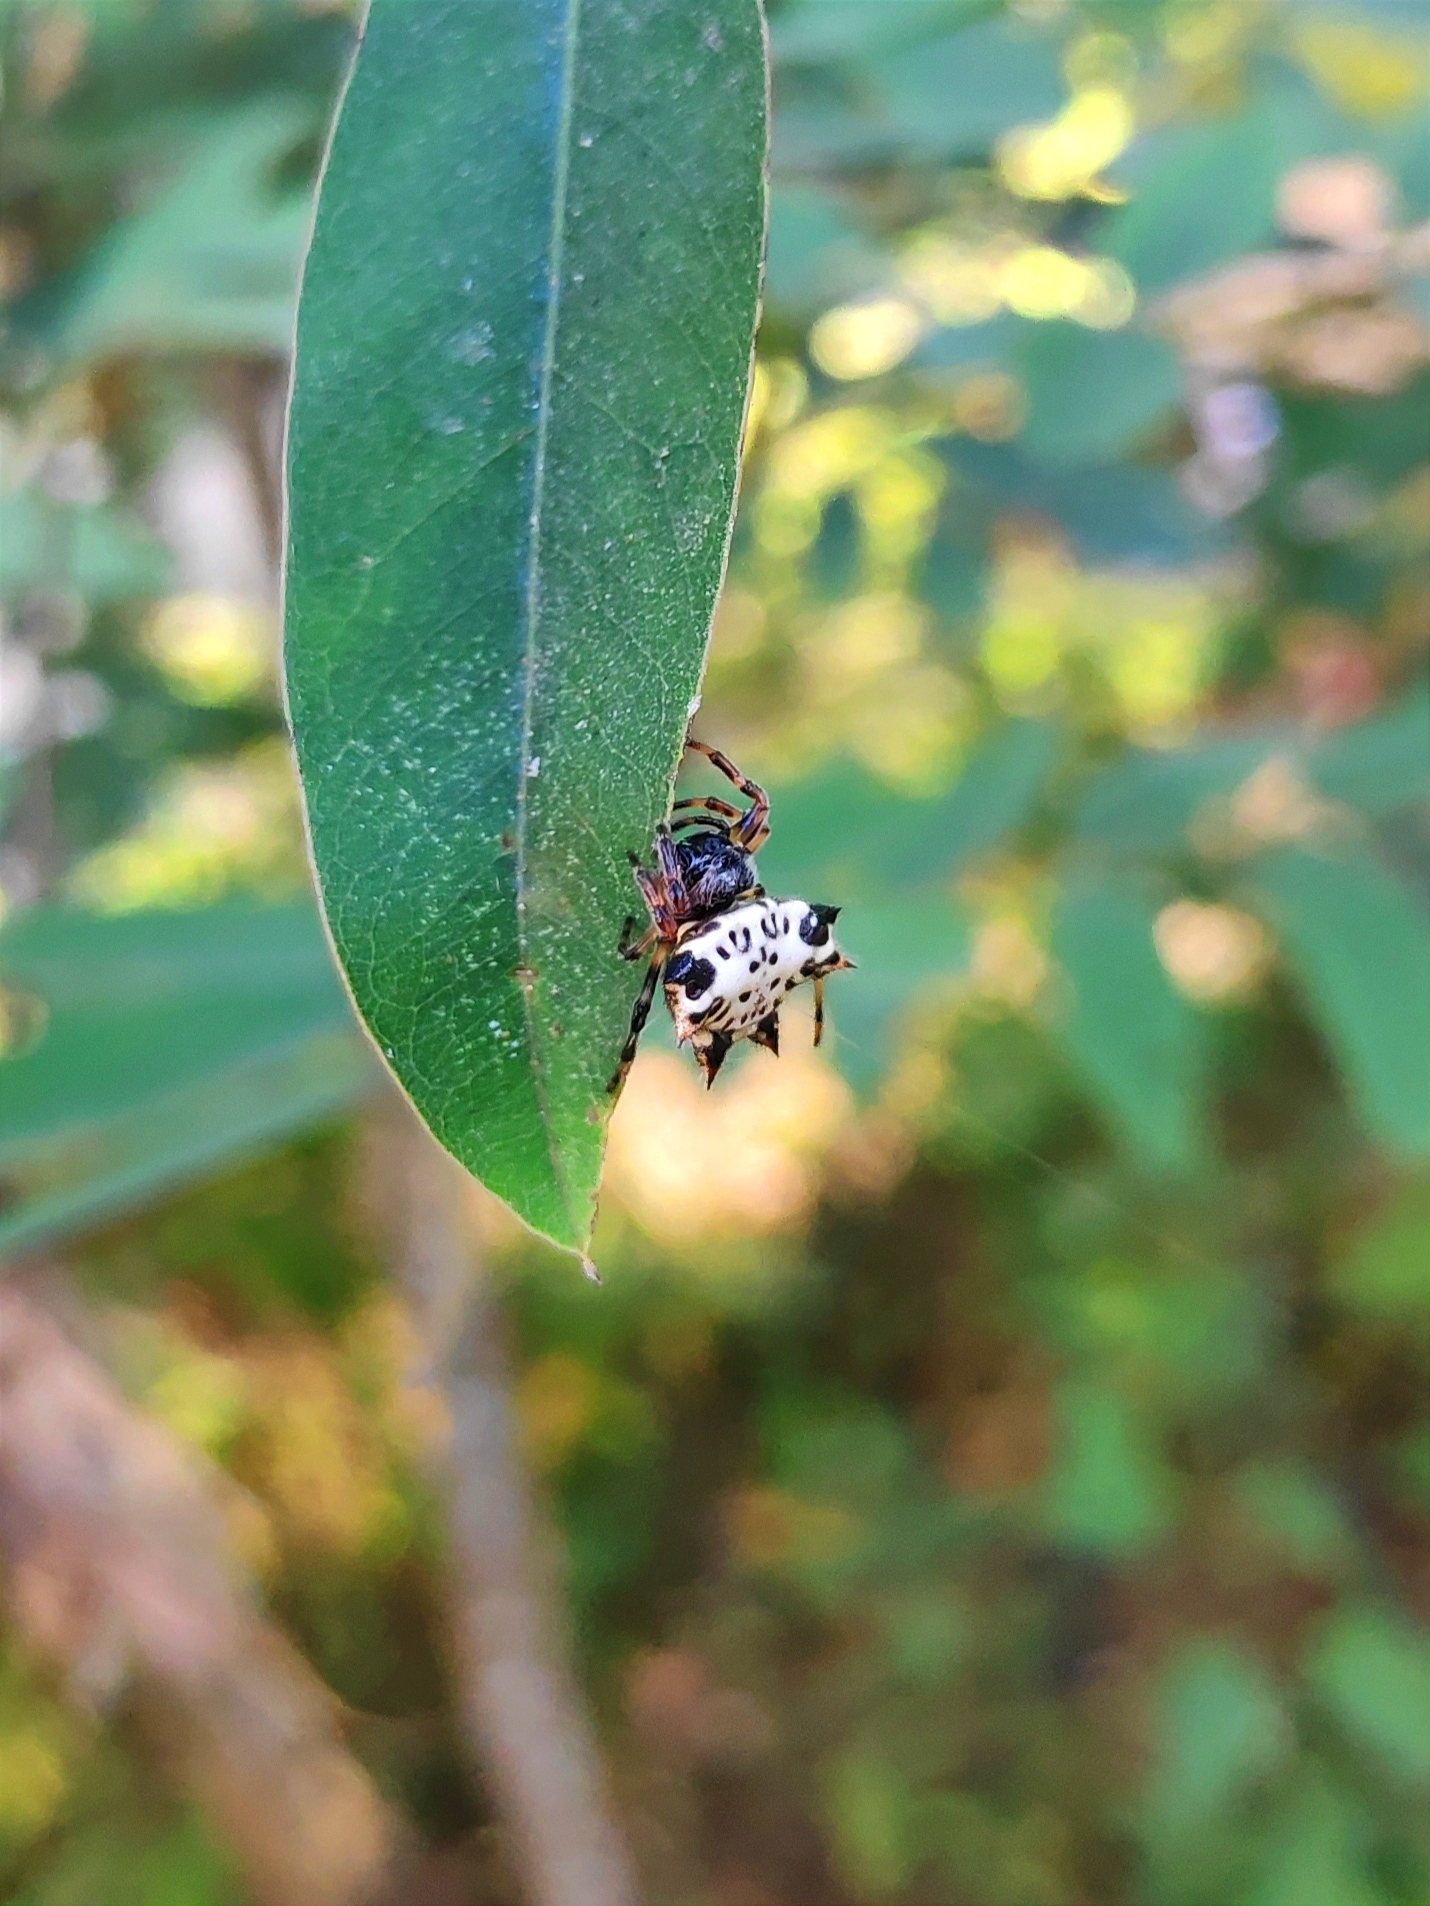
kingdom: Animalia
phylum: Arthropoda
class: Arachnida
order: Araneae
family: Araneidae
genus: Gasteracantha
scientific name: Gasteracantha kuhli
